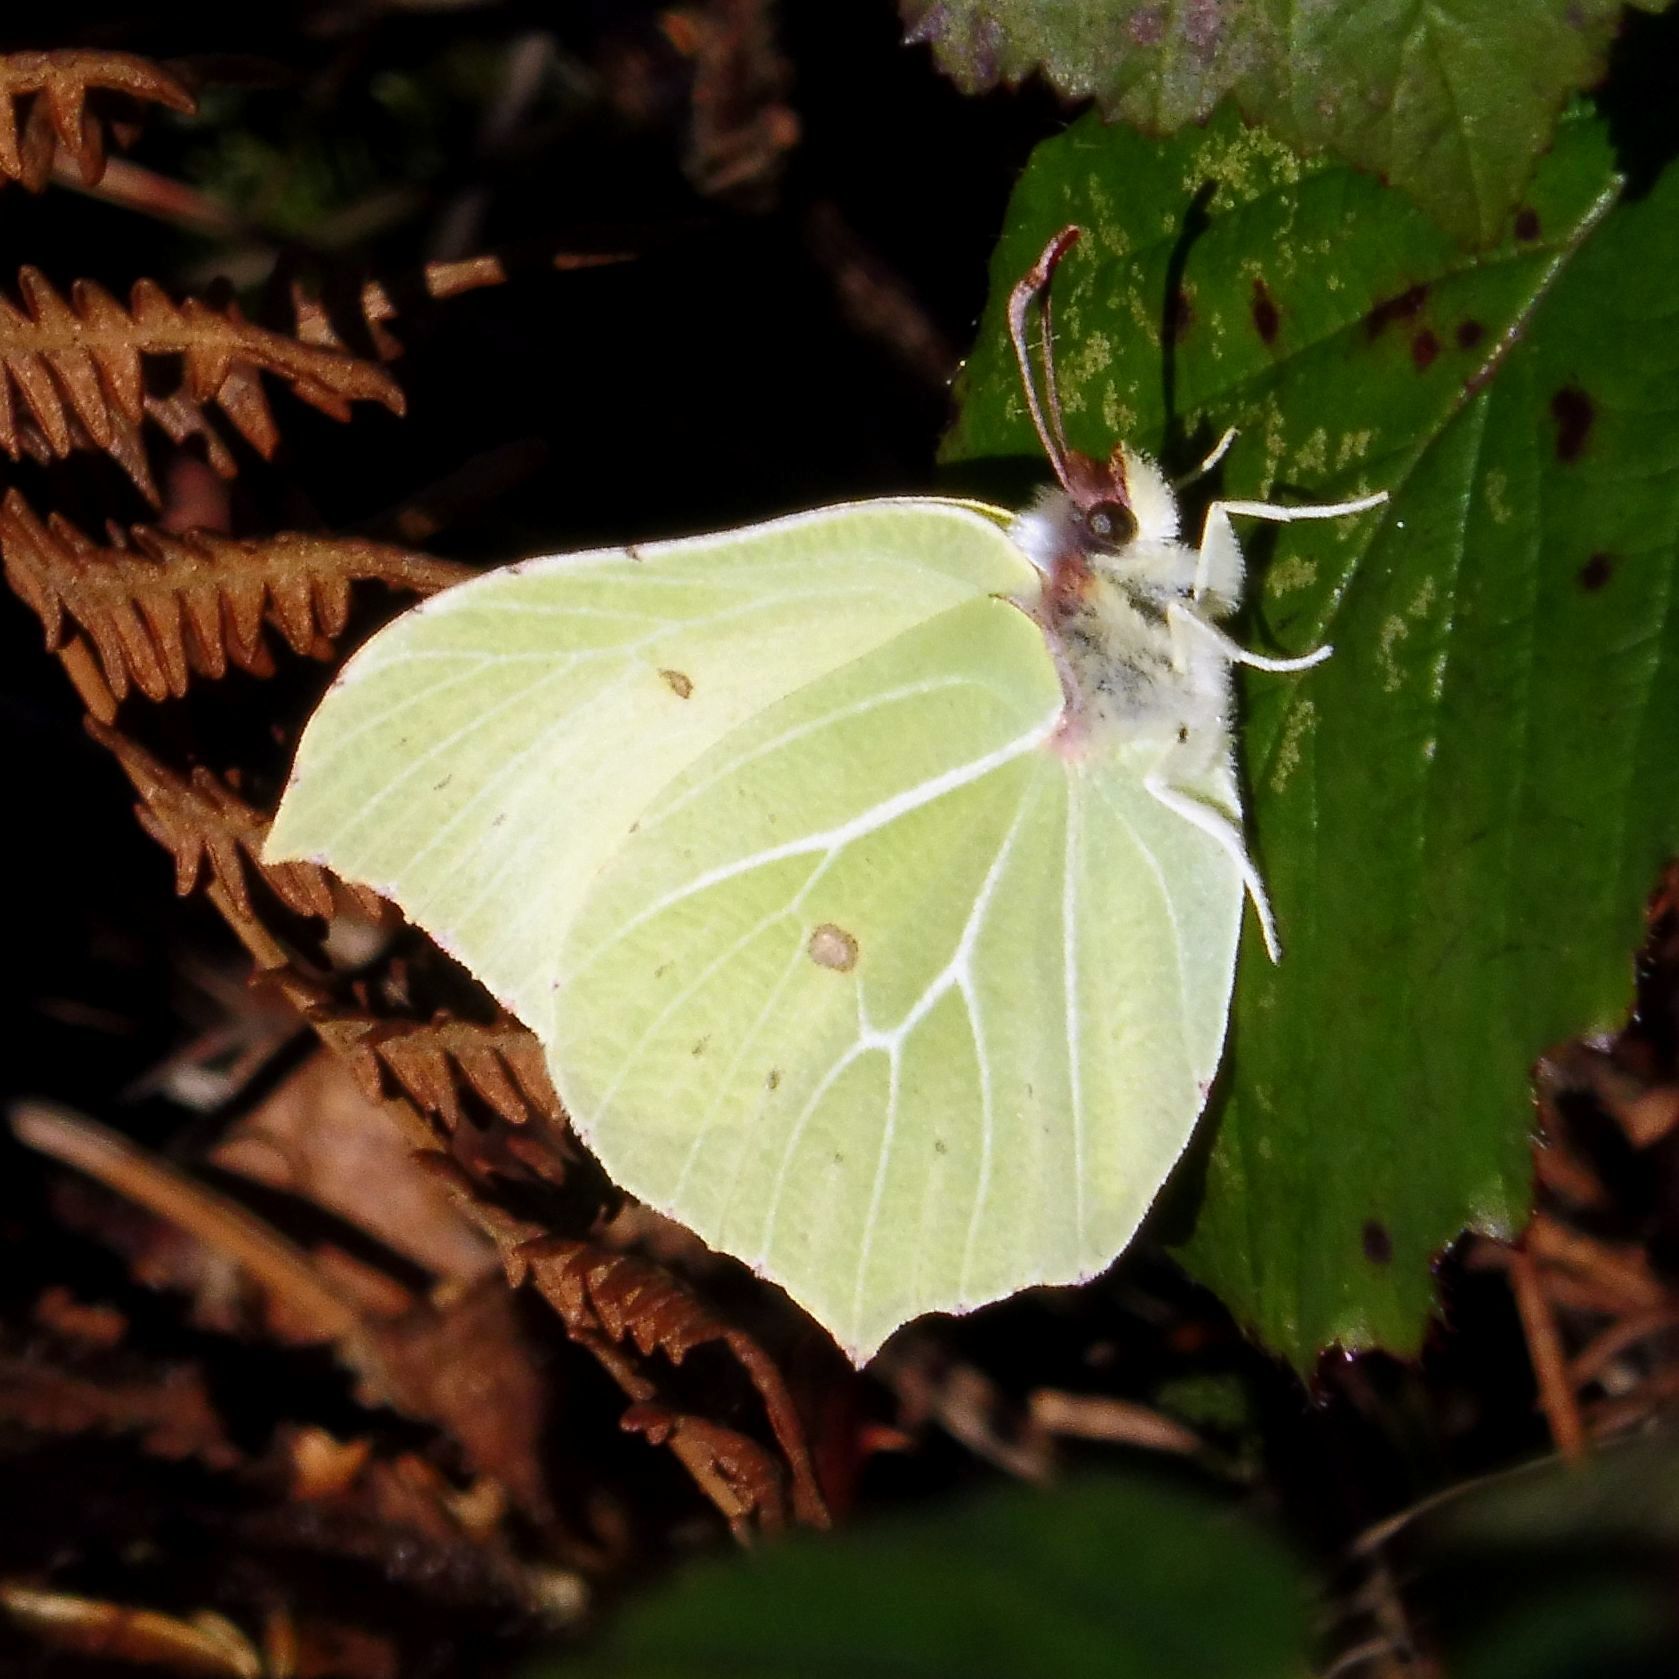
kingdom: Animalia
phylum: Arthropoda
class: Insecta
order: Lepidoptera
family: Pieridae
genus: Gonepteryx
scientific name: Gonepteryx rhamni
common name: Brimstone
